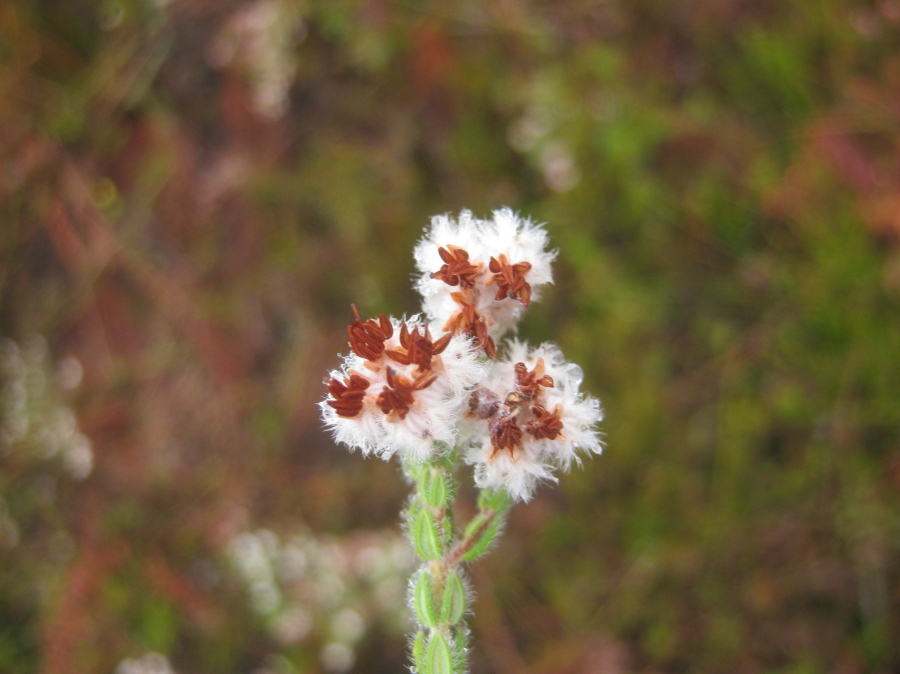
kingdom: Plantae
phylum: Tracheophyta
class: Magnoliopsida
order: Ericales
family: Ericaceae
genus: Erica
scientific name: Erica flaccida
